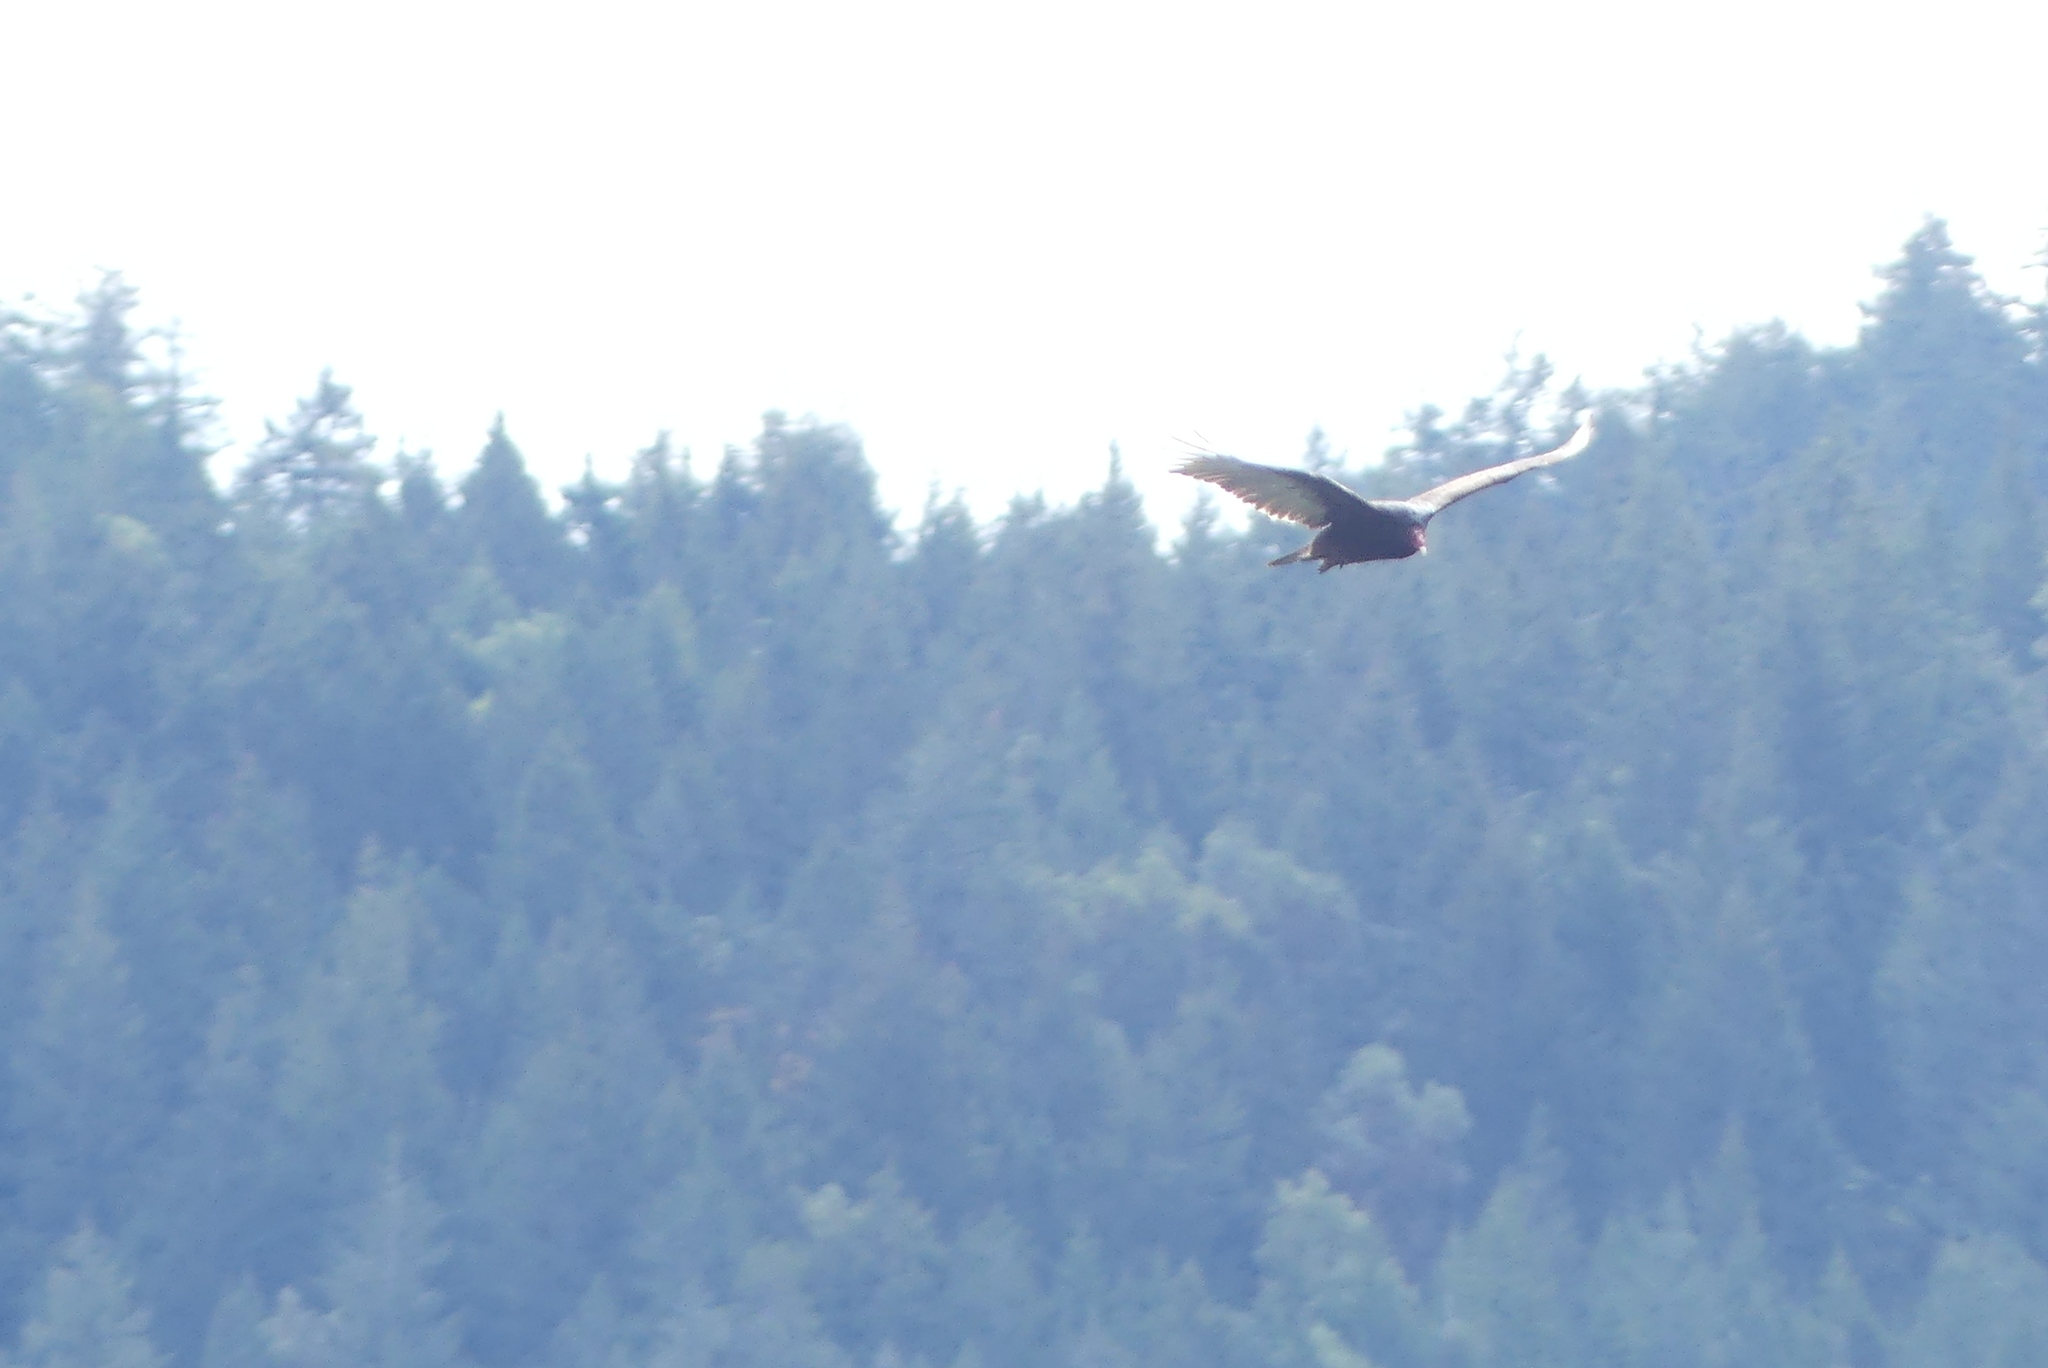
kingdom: Animalia
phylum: Chordata
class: Aves
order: Accipitriformes
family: Cathartidae
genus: Cathartes
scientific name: Cathartes aura
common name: Turkey vulture
